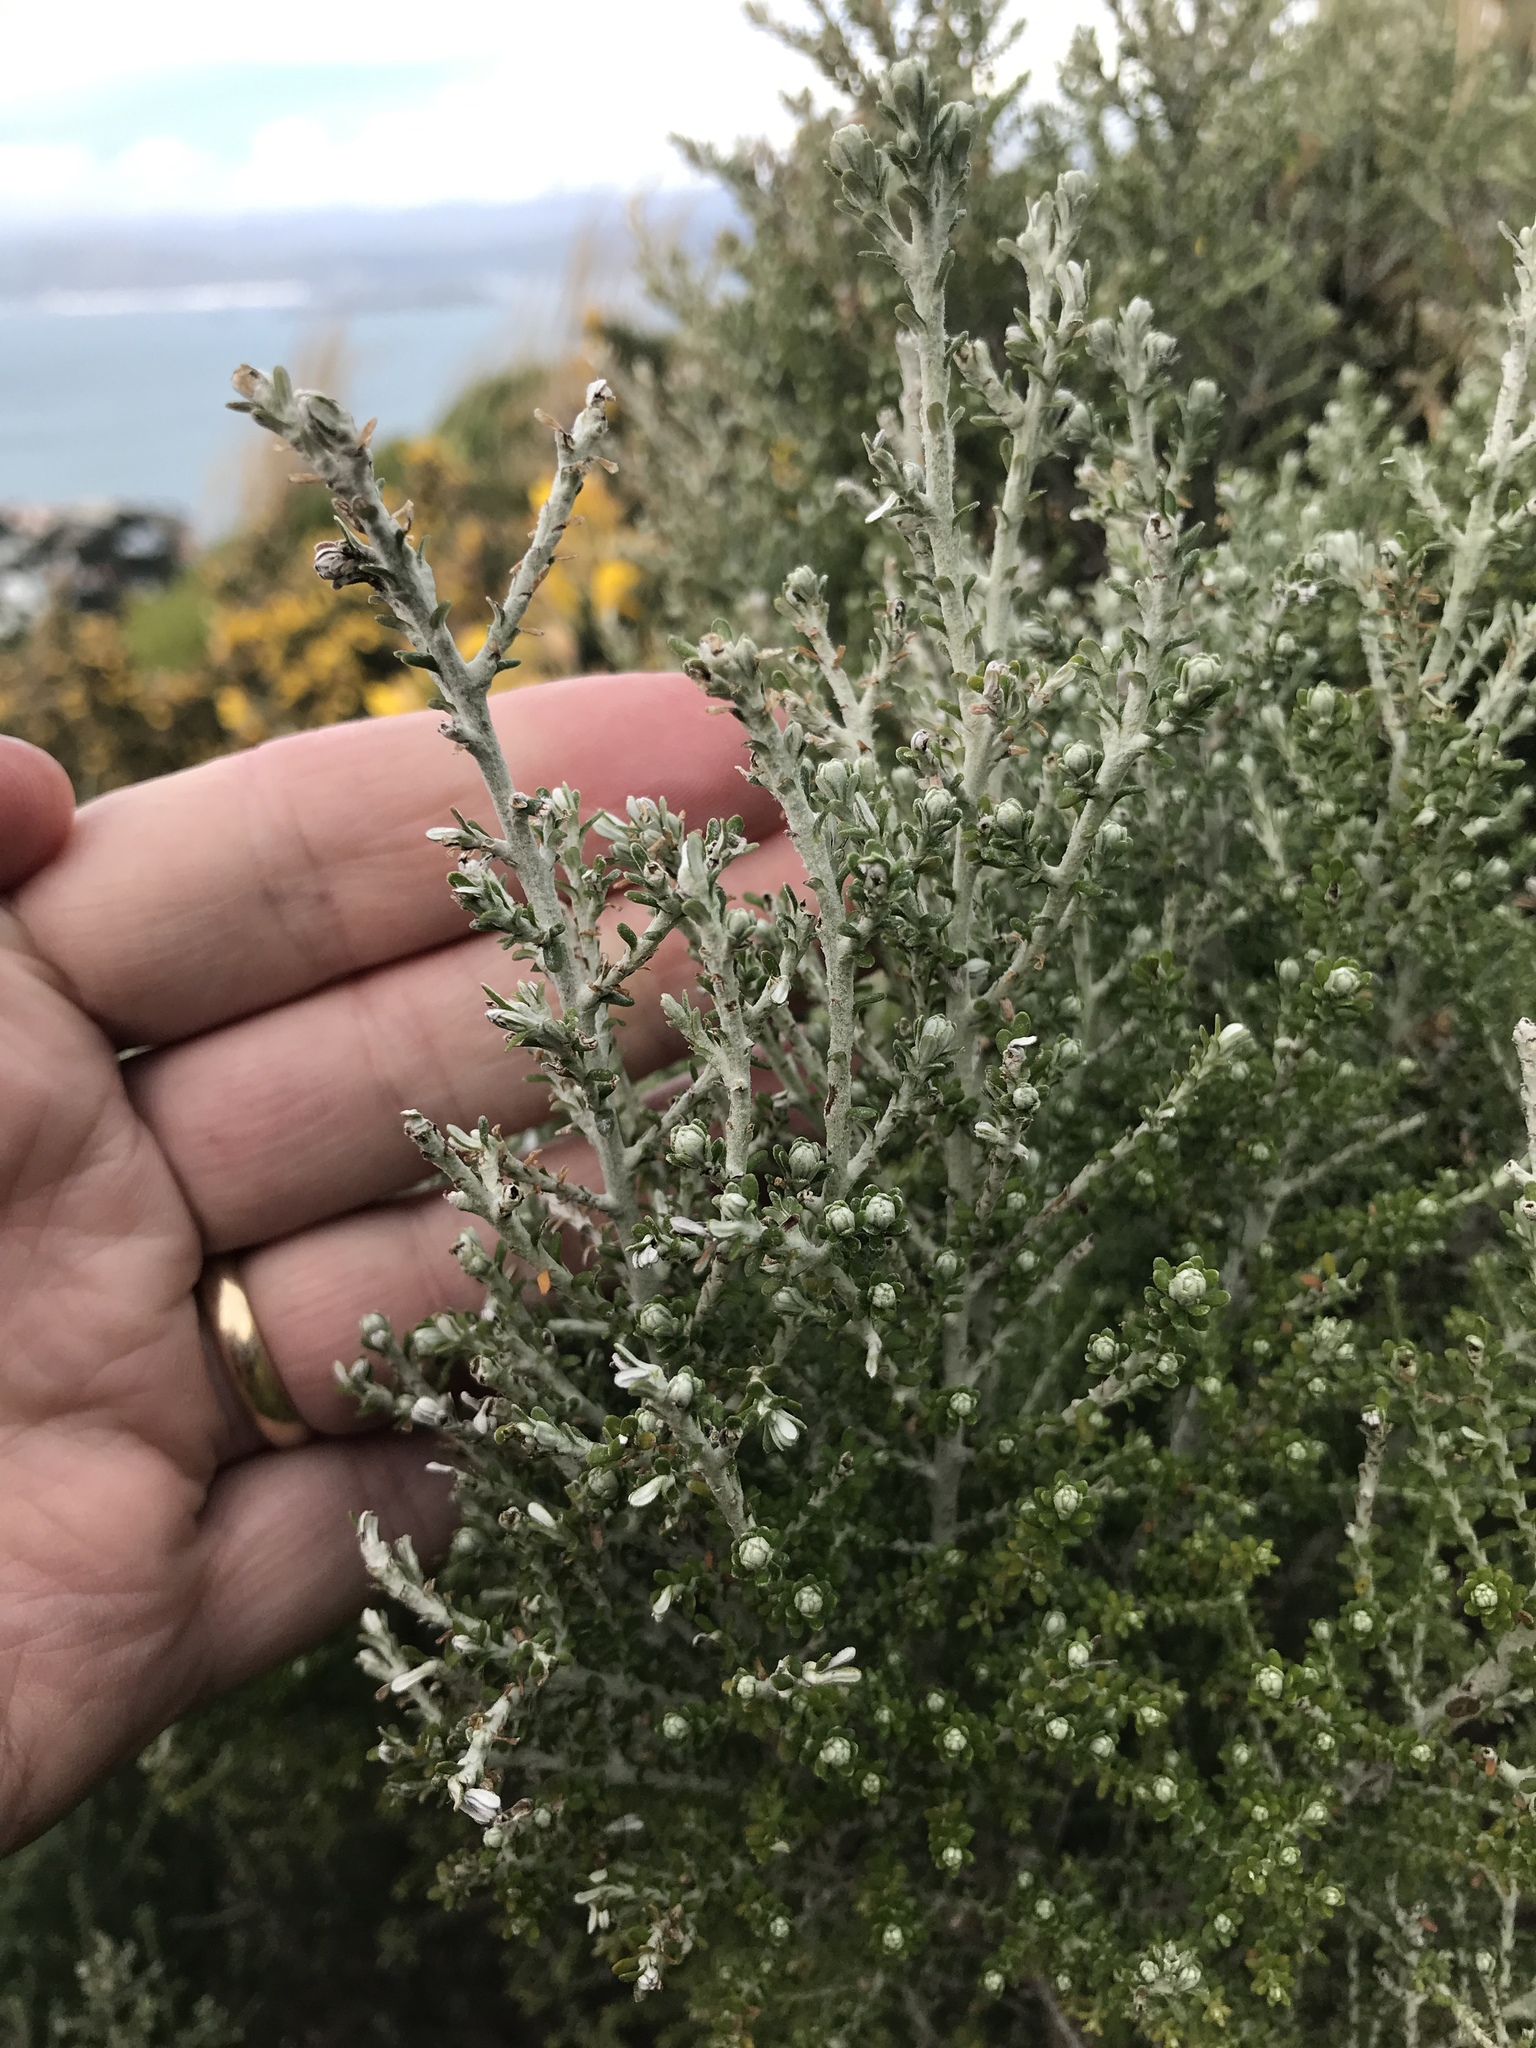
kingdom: Plantae
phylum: Tracheophyta
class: Magnoliopsida
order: Asterales
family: Asteraceae
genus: Ozothamnus
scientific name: Ozothamnus leptophyllus
